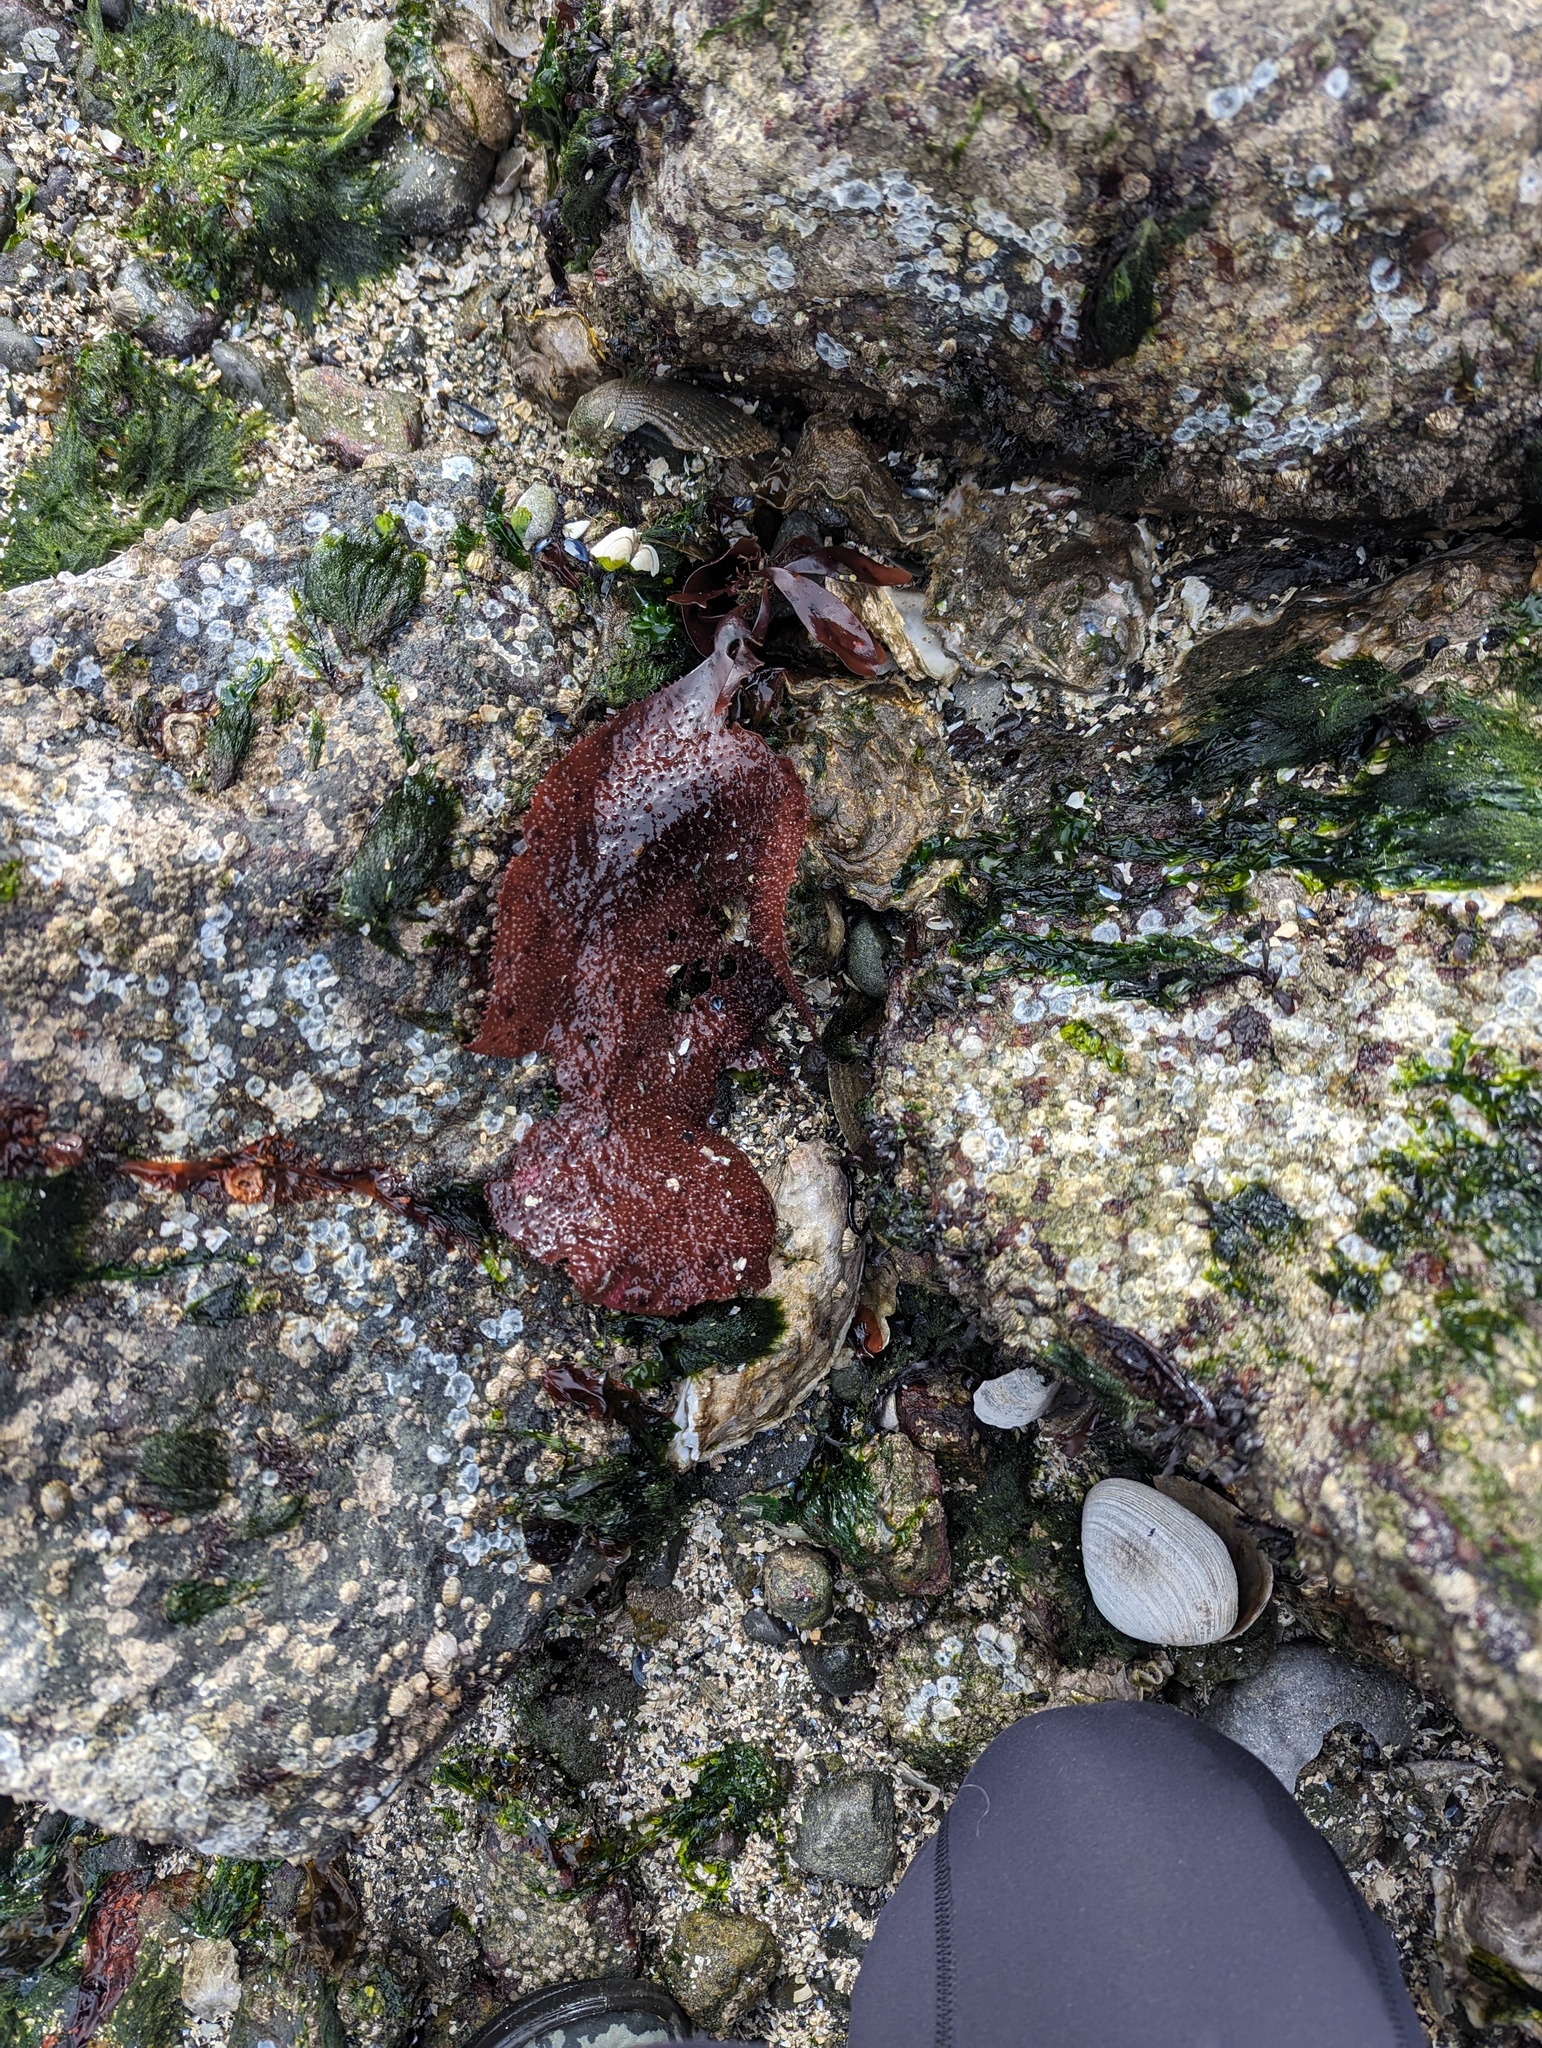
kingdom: Plantae
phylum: Rhodophyta
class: Florideophyceae
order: Gigartinales
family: Gigartinaceae
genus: Chondracanthus
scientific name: Chondracanthus exasperatus
